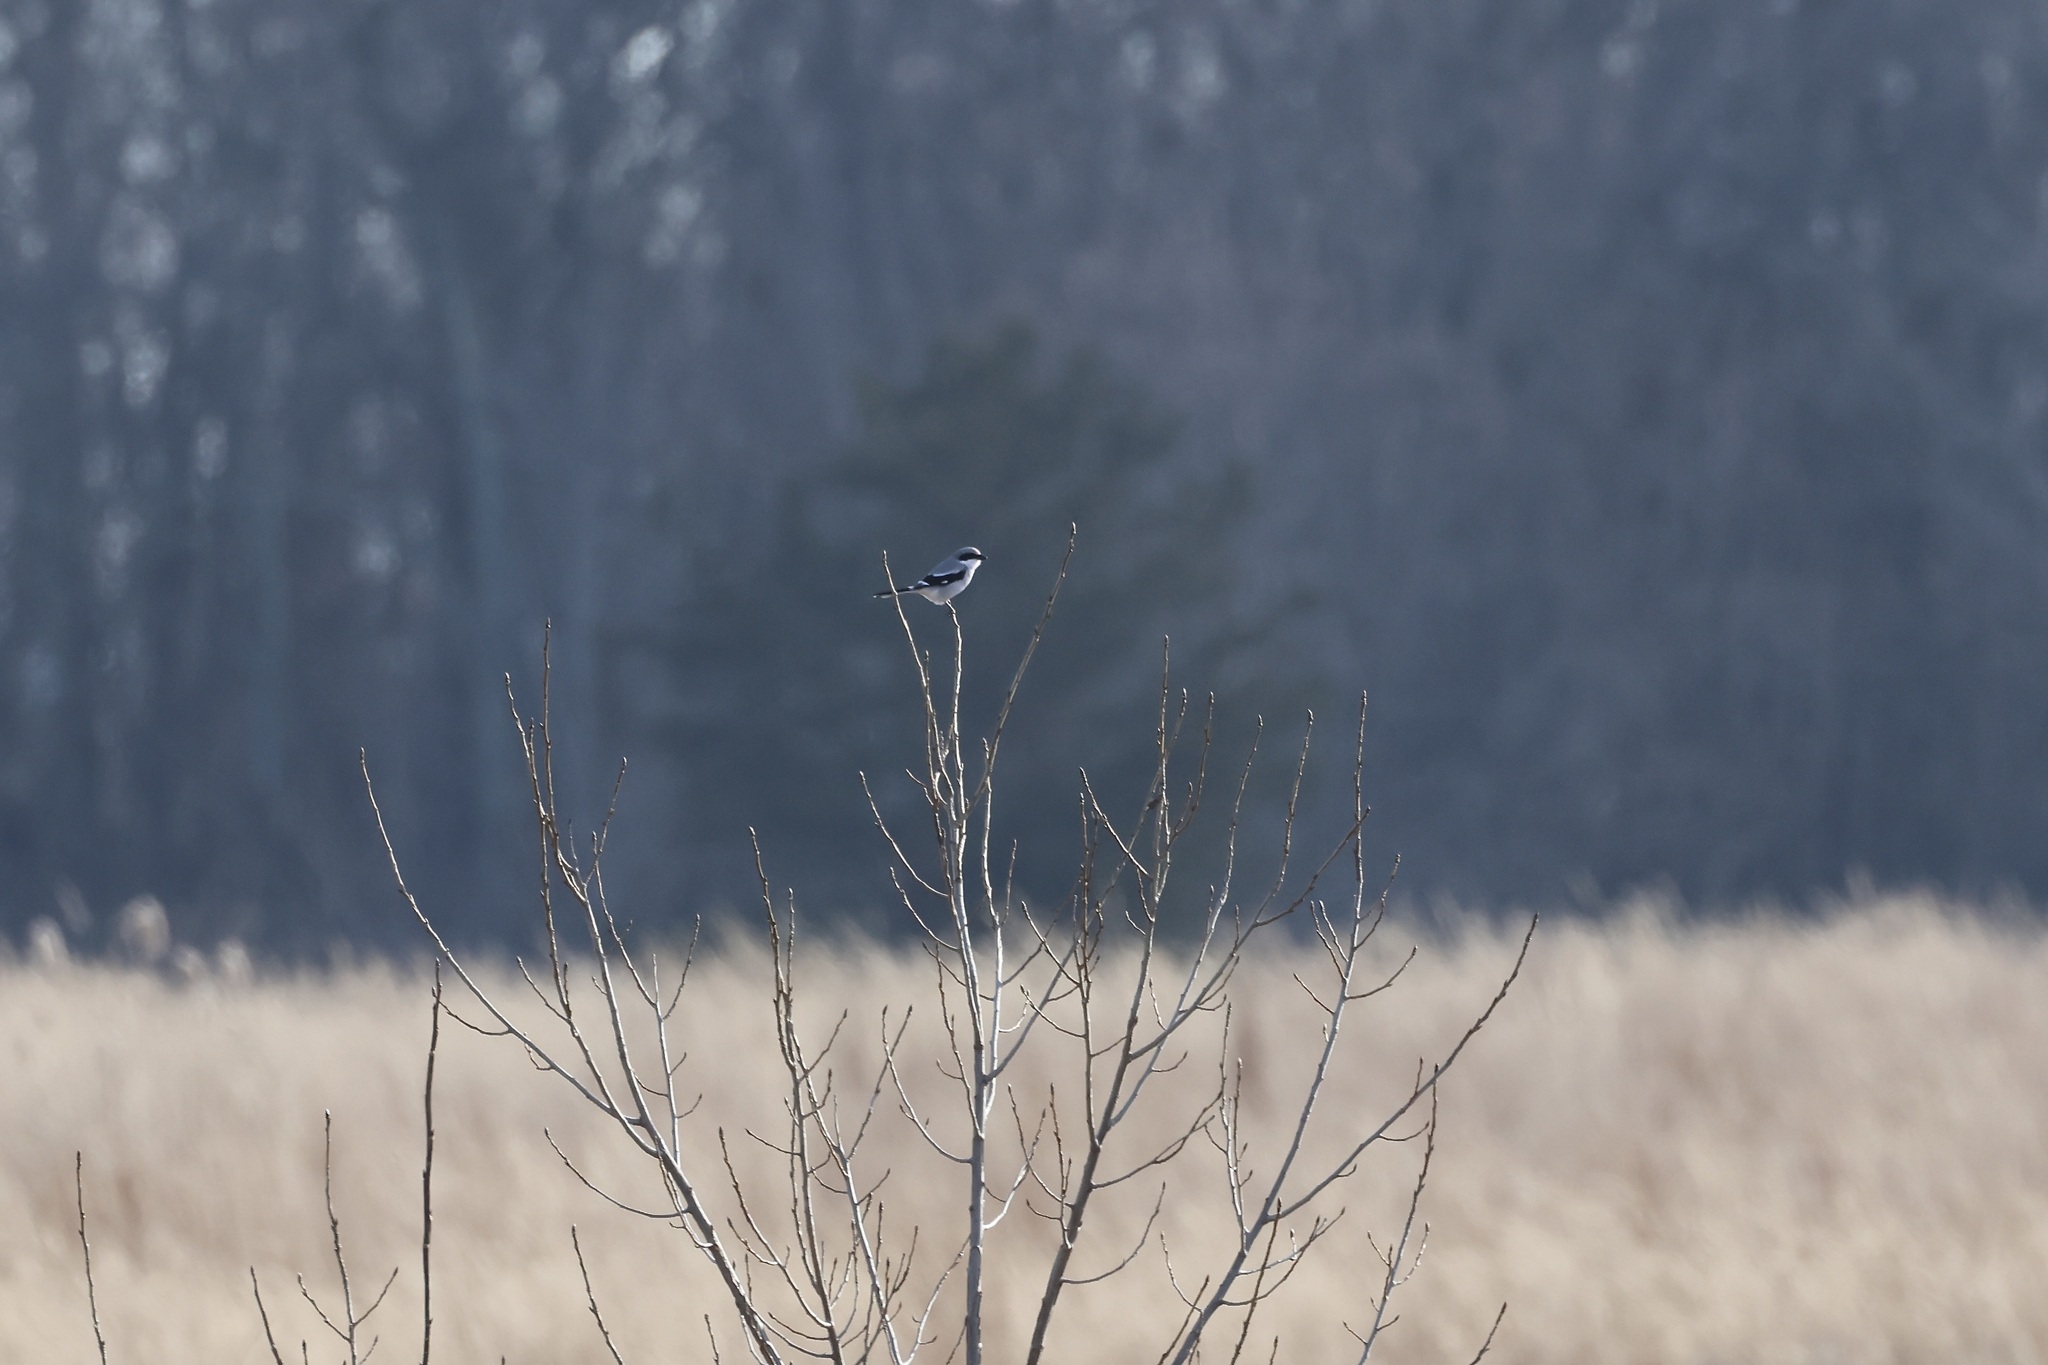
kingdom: Animalia
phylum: Chordata
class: Aves
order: Passeriformes
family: Laniidae
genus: Lanius
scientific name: Lanius ludovicianus
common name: Loggerhead shrike
